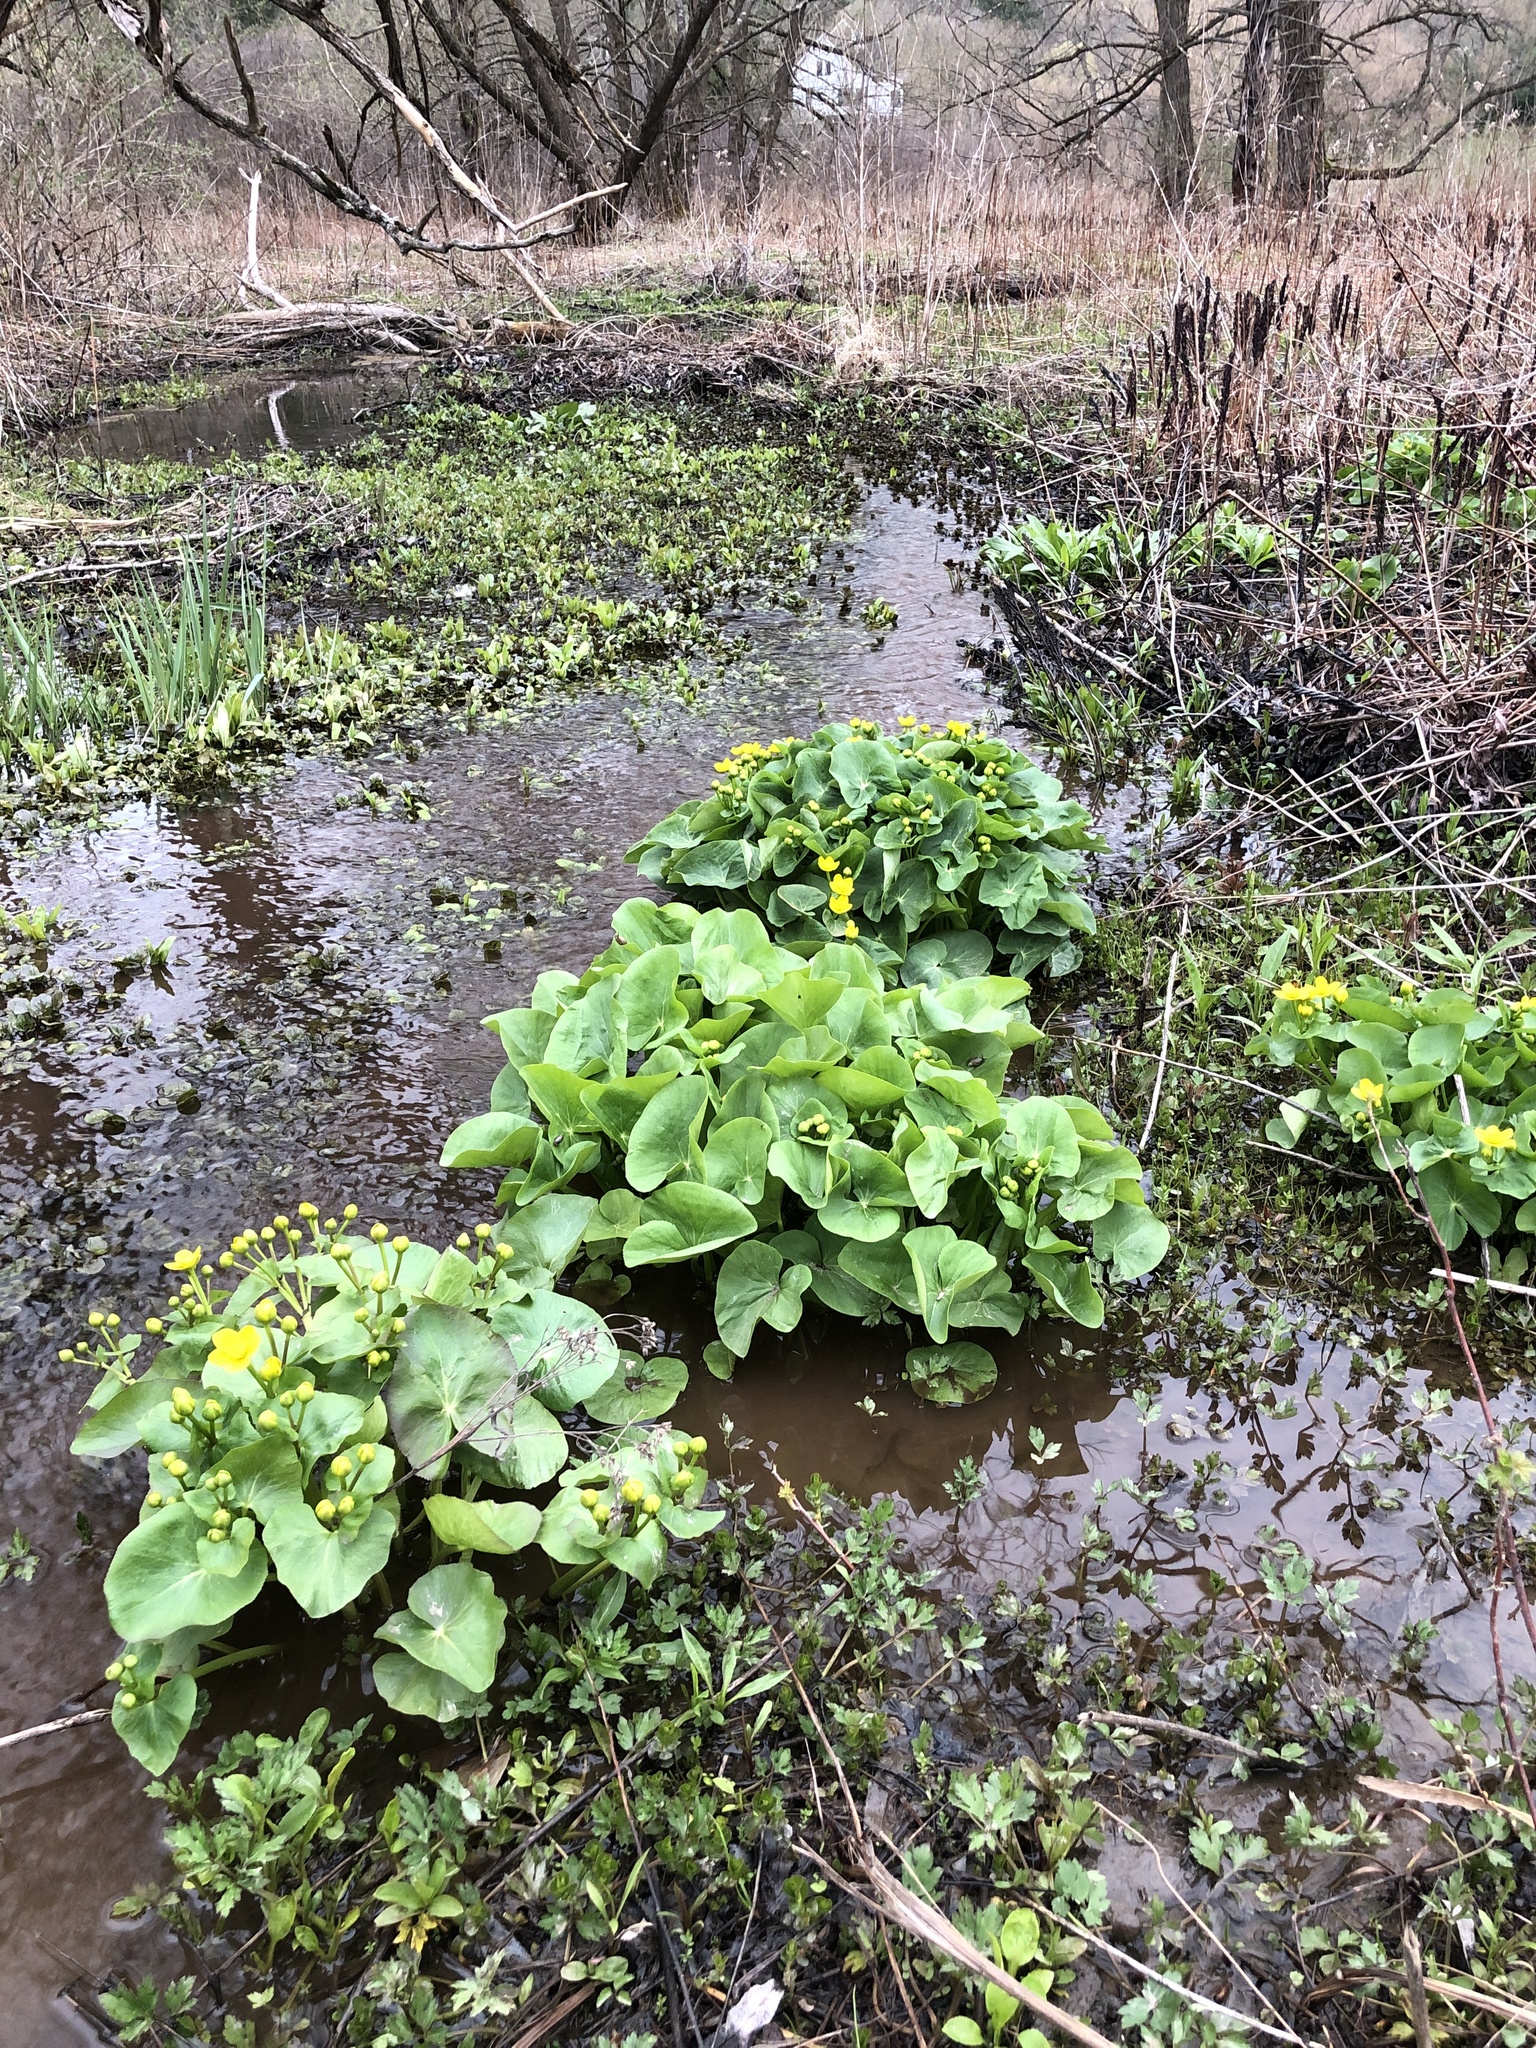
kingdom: Plantae
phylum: Tracheophyta
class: Magnoliopsida
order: Ranunculales
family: Ranunculaceae
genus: Caltha
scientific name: Caltha palustris
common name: Marsh marigold
